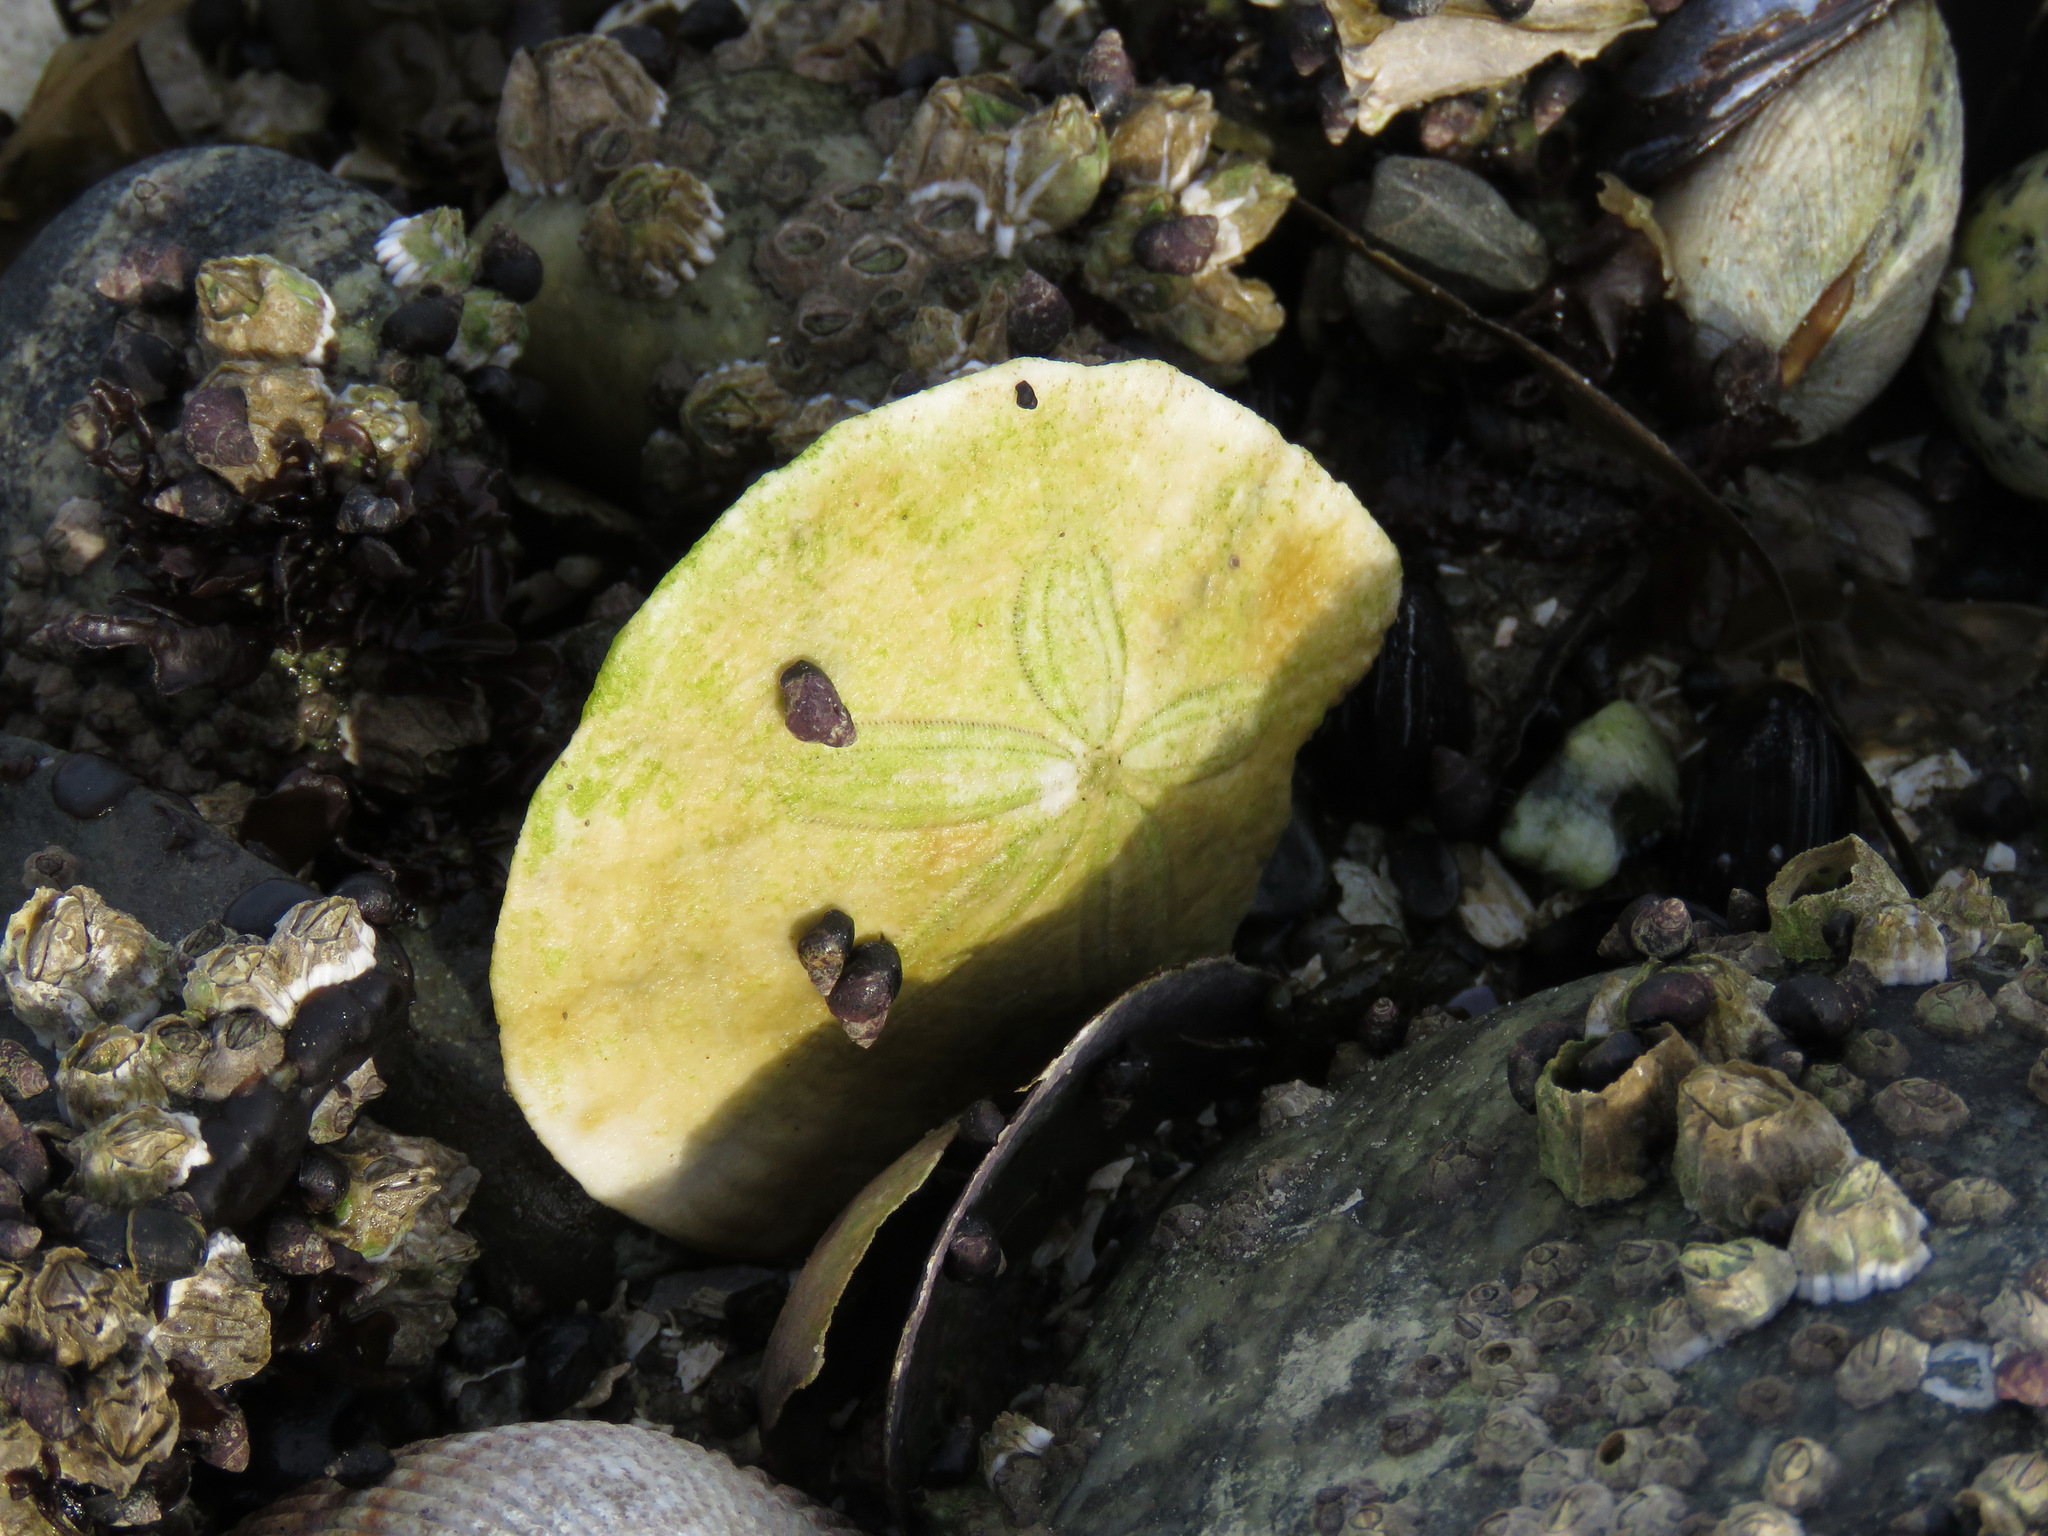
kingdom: Animalia
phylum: Echinodermata
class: Echinoidea
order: Echinolampadacea
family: Dendrasteridae
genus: Dendraster
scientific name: Dendraster excentricus
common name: Eccentric sand dollar sea urchin
